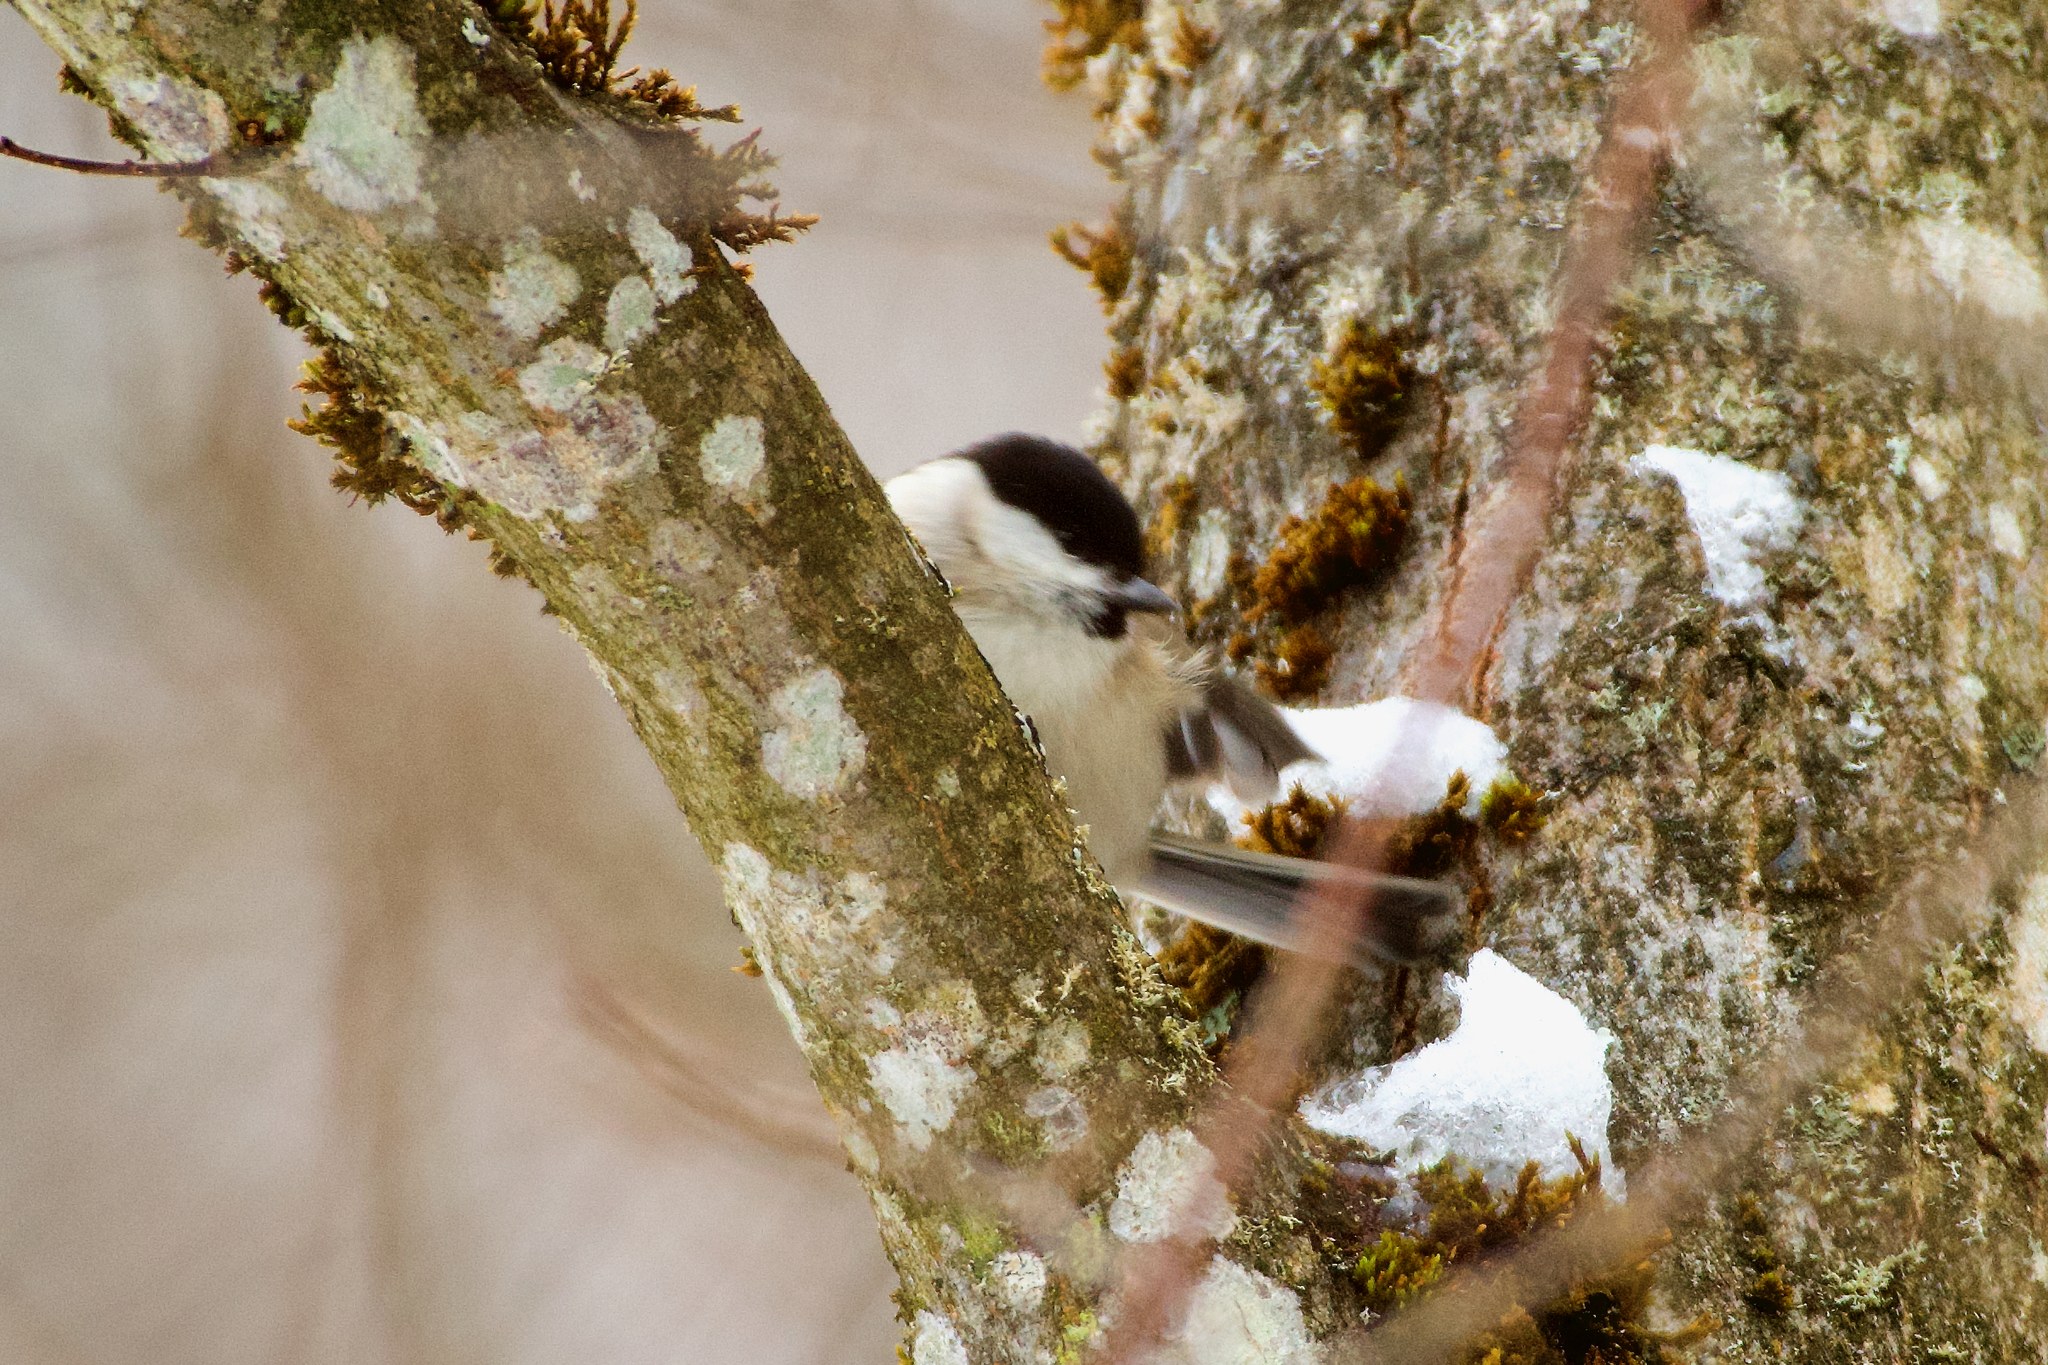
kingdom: Animalia
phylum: Chordata
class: Aves
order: Passeriformes
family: Paridae
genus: Poecile
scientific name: Poecile palustris
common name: Marsh tit
